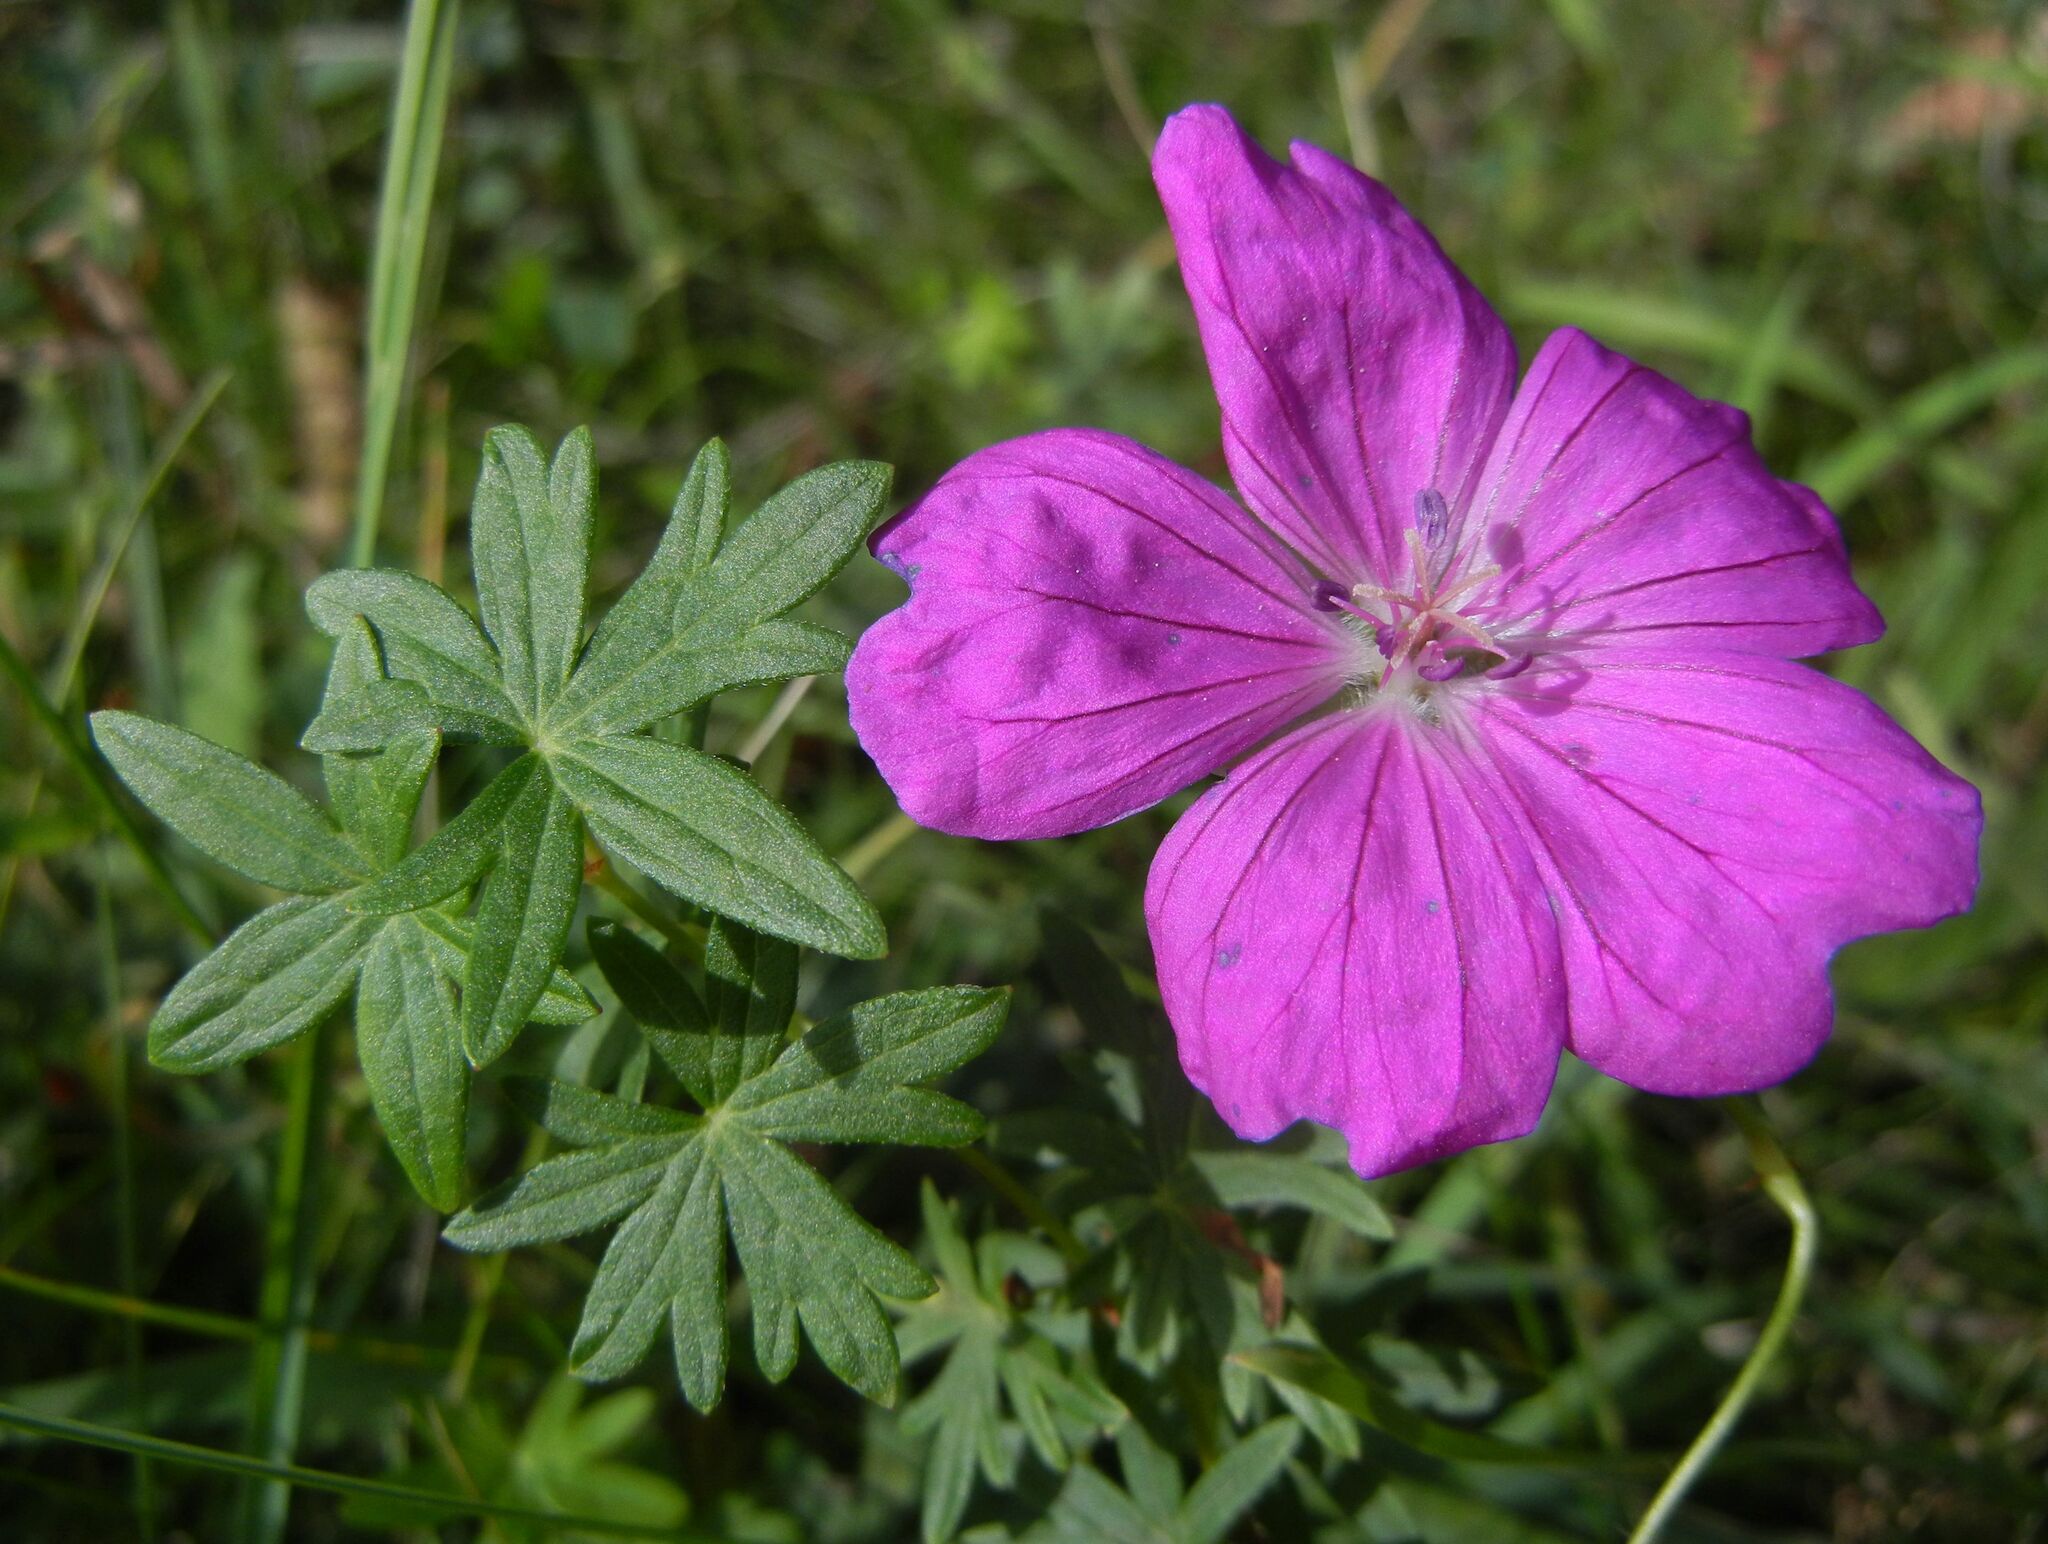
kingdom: Plantae
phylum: Tracheophyta
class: Magnoliopsida
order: Geraniales
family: Geraniaceae
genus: Geranium
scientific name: Geranium sanguineum
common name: Bloody crane's-bill
